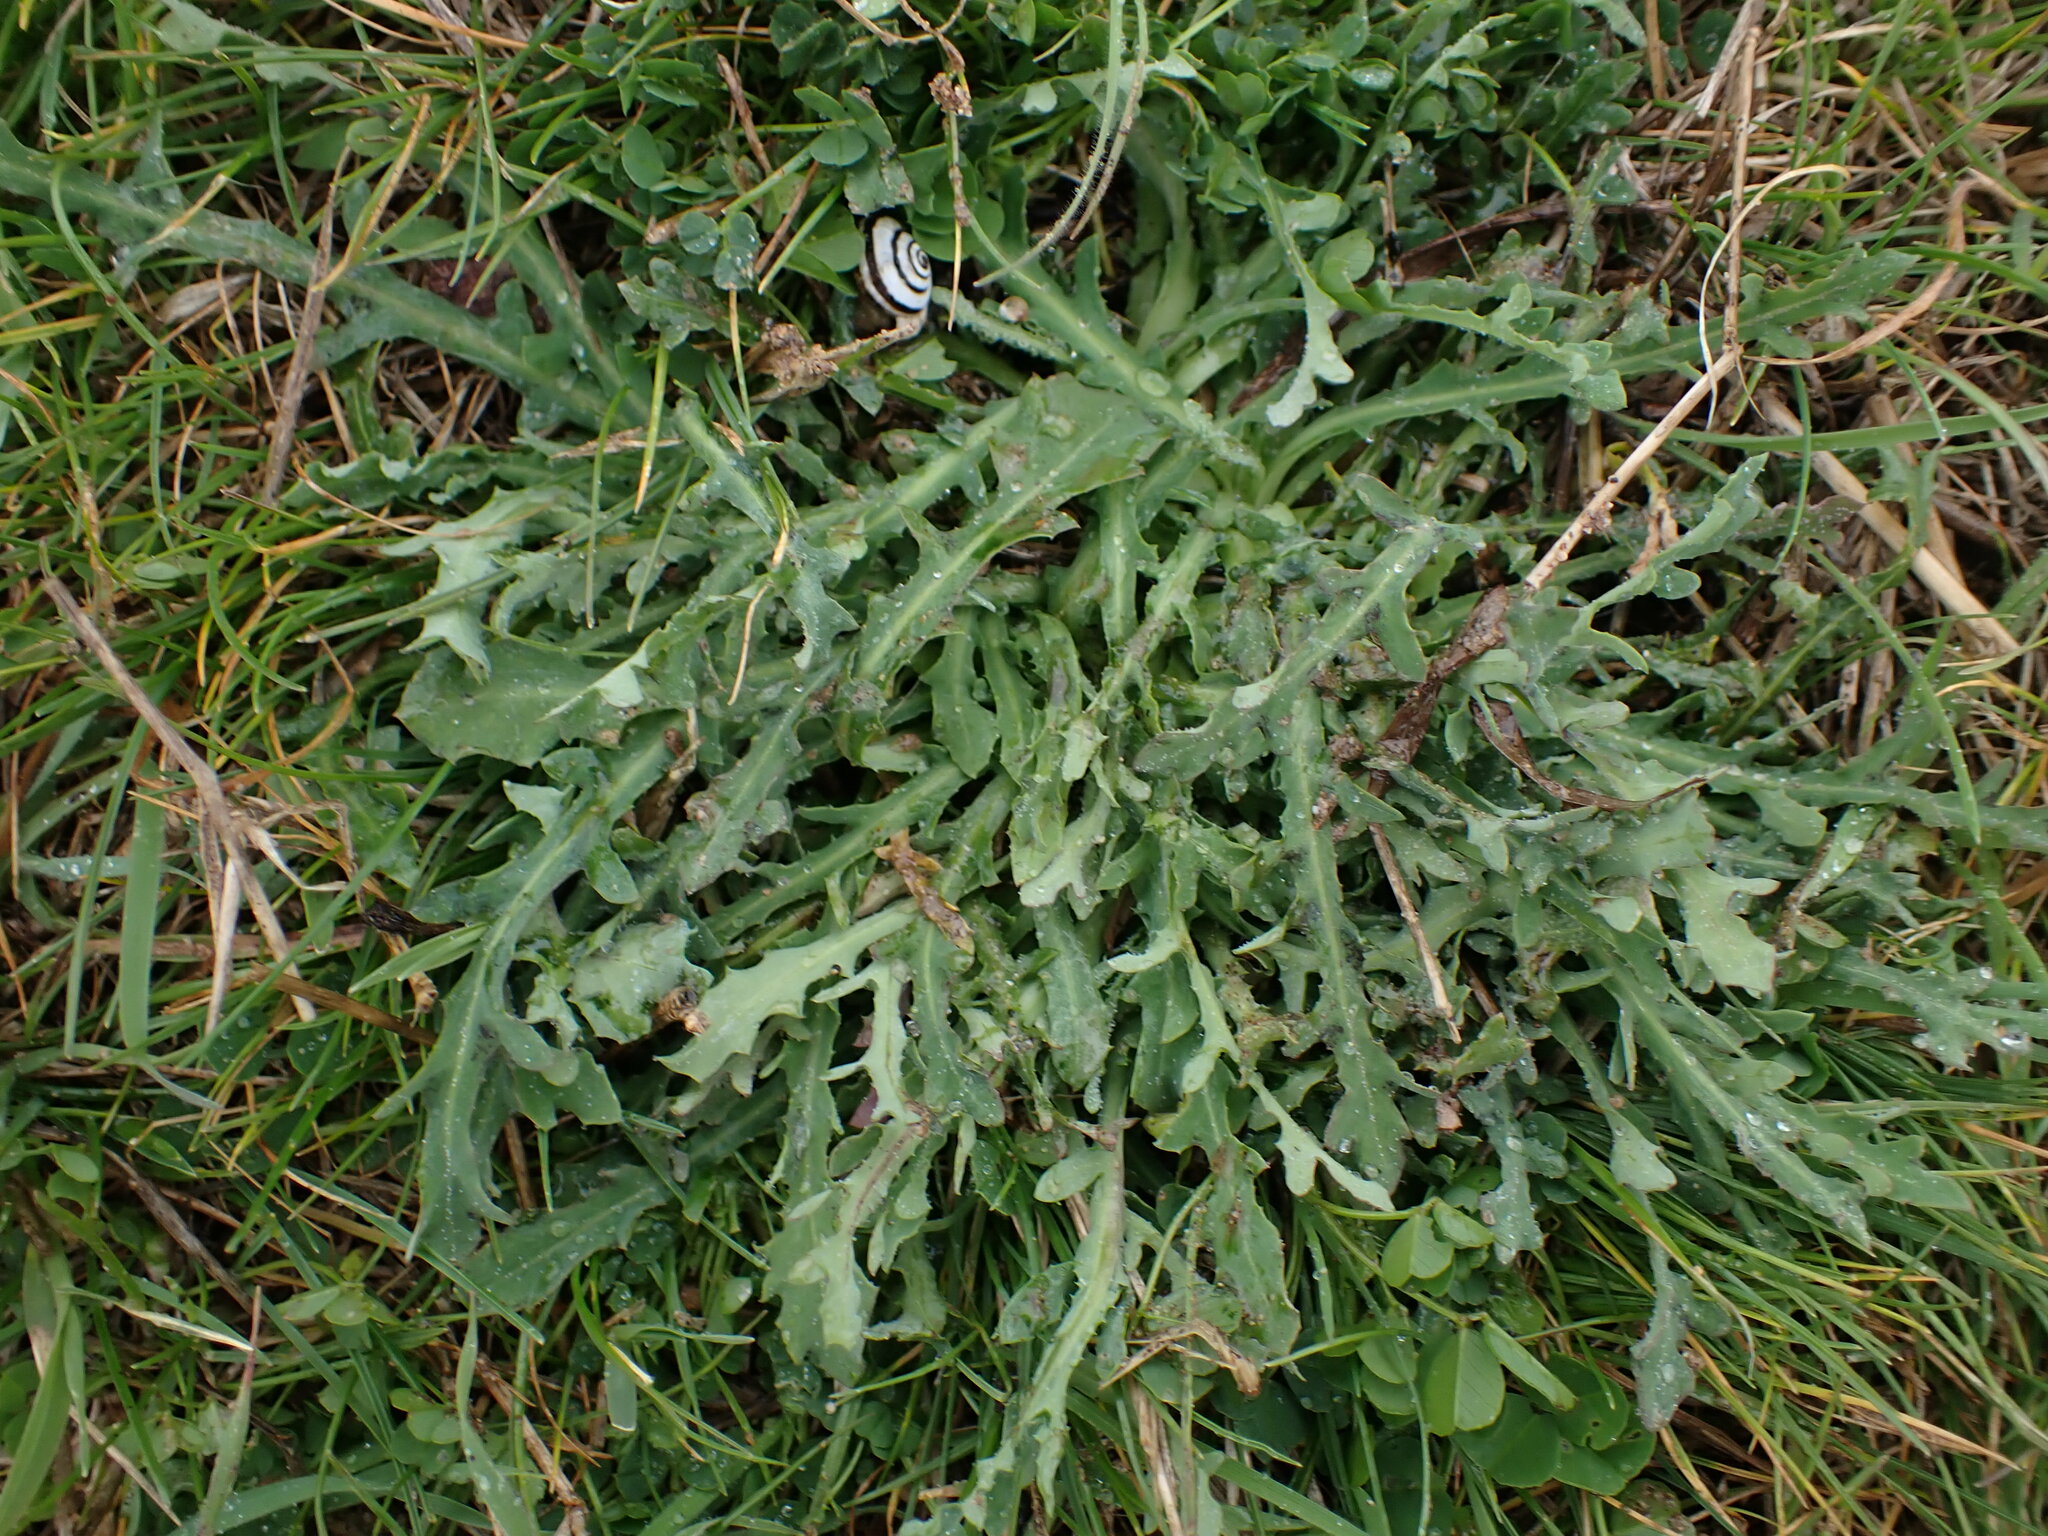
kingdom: Plantae
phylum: Tracheophyta
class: Magnoliopsida
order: Asterales
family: Asteraceae
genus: Reichardia
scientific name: Reichardia picroides
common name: Common brighteyes
